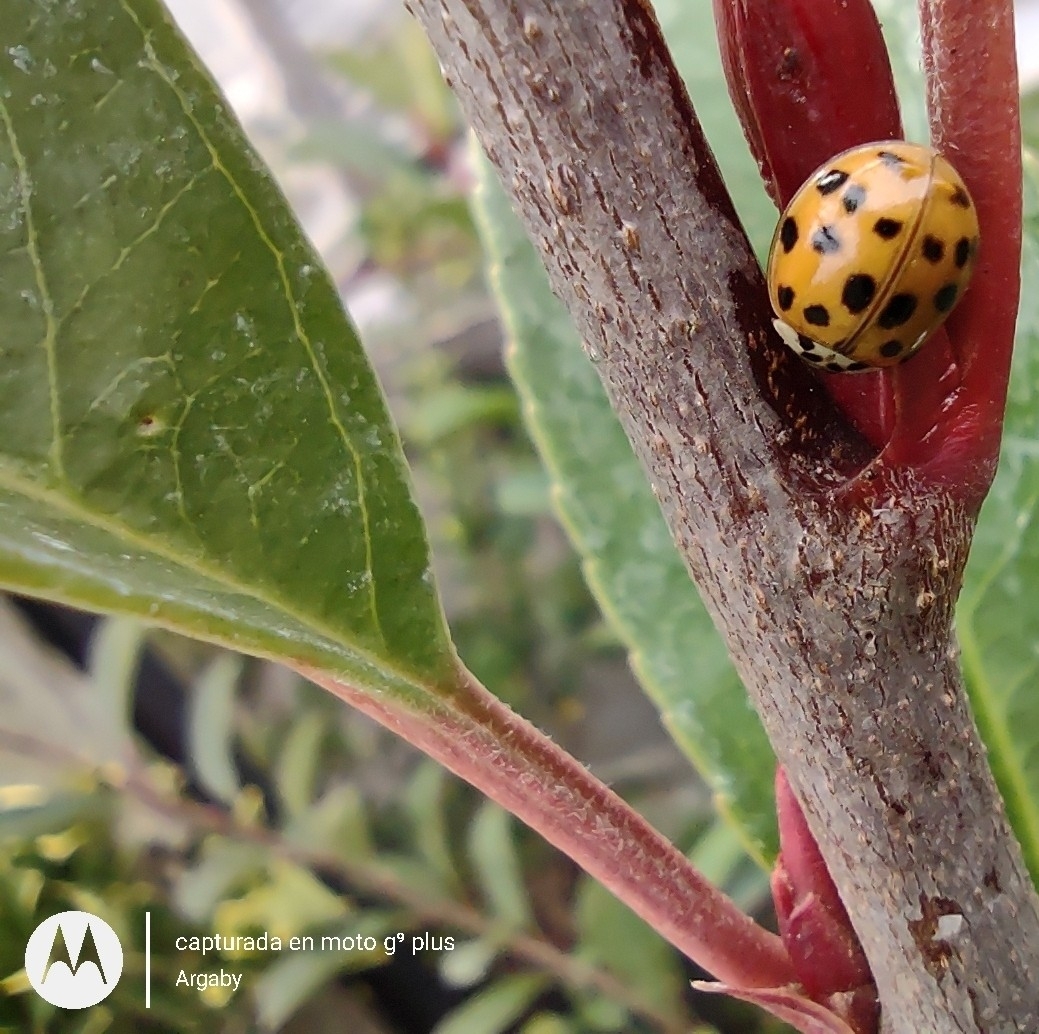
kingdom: Animalia
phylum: Arthropoda
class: Insecta
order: Coleoptera
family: Coccinellidae
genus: Harmonia
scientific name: Harmonia axyridis
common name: Harlequin ladybird
